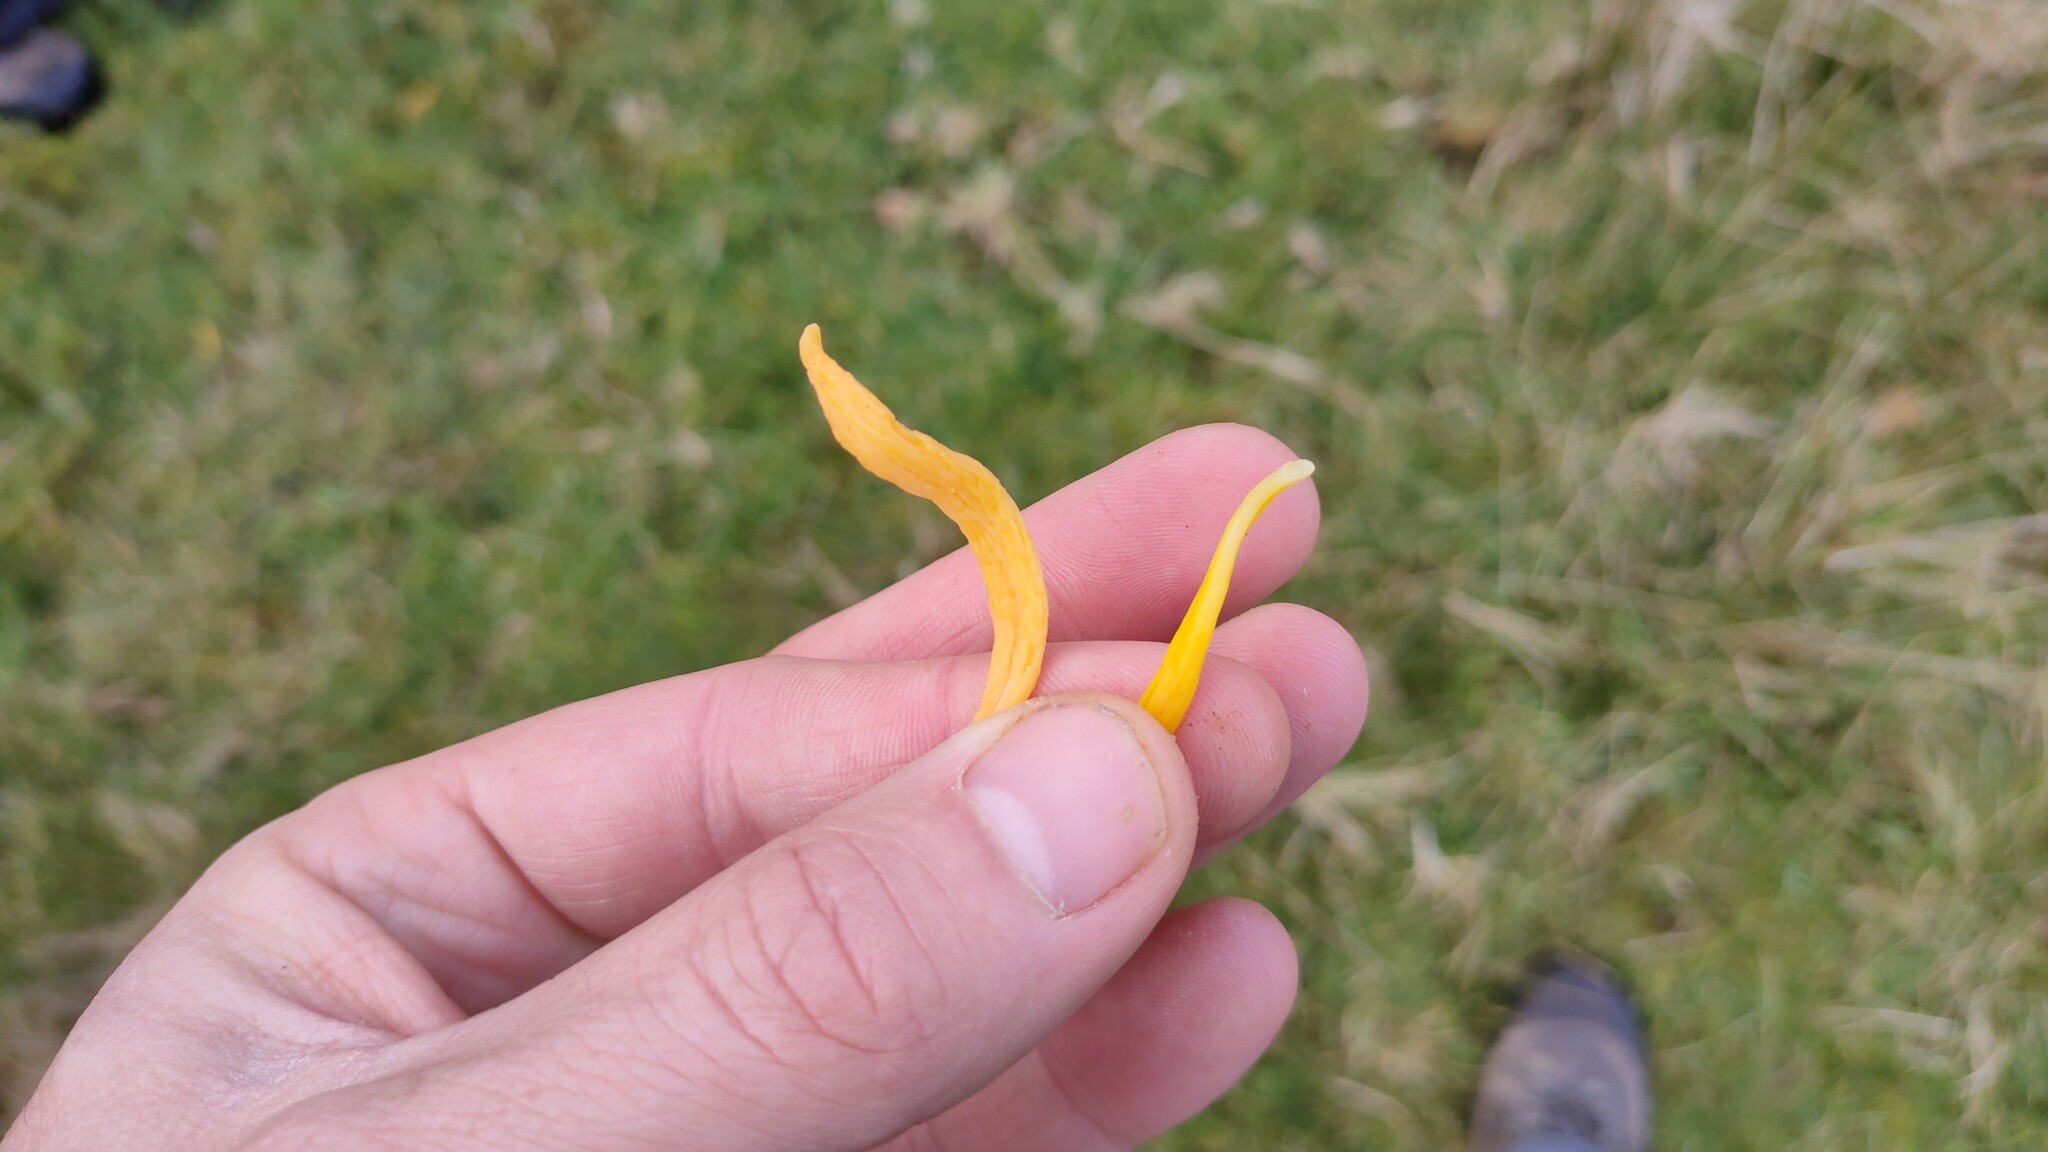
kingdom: Fungi
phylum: Basidiomycota
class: Agaricomycetes
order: Agaricales
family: Clavariaceae
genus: Clavulinopsis
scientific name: Clavulinopsis luteoalba
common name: Apricot club
